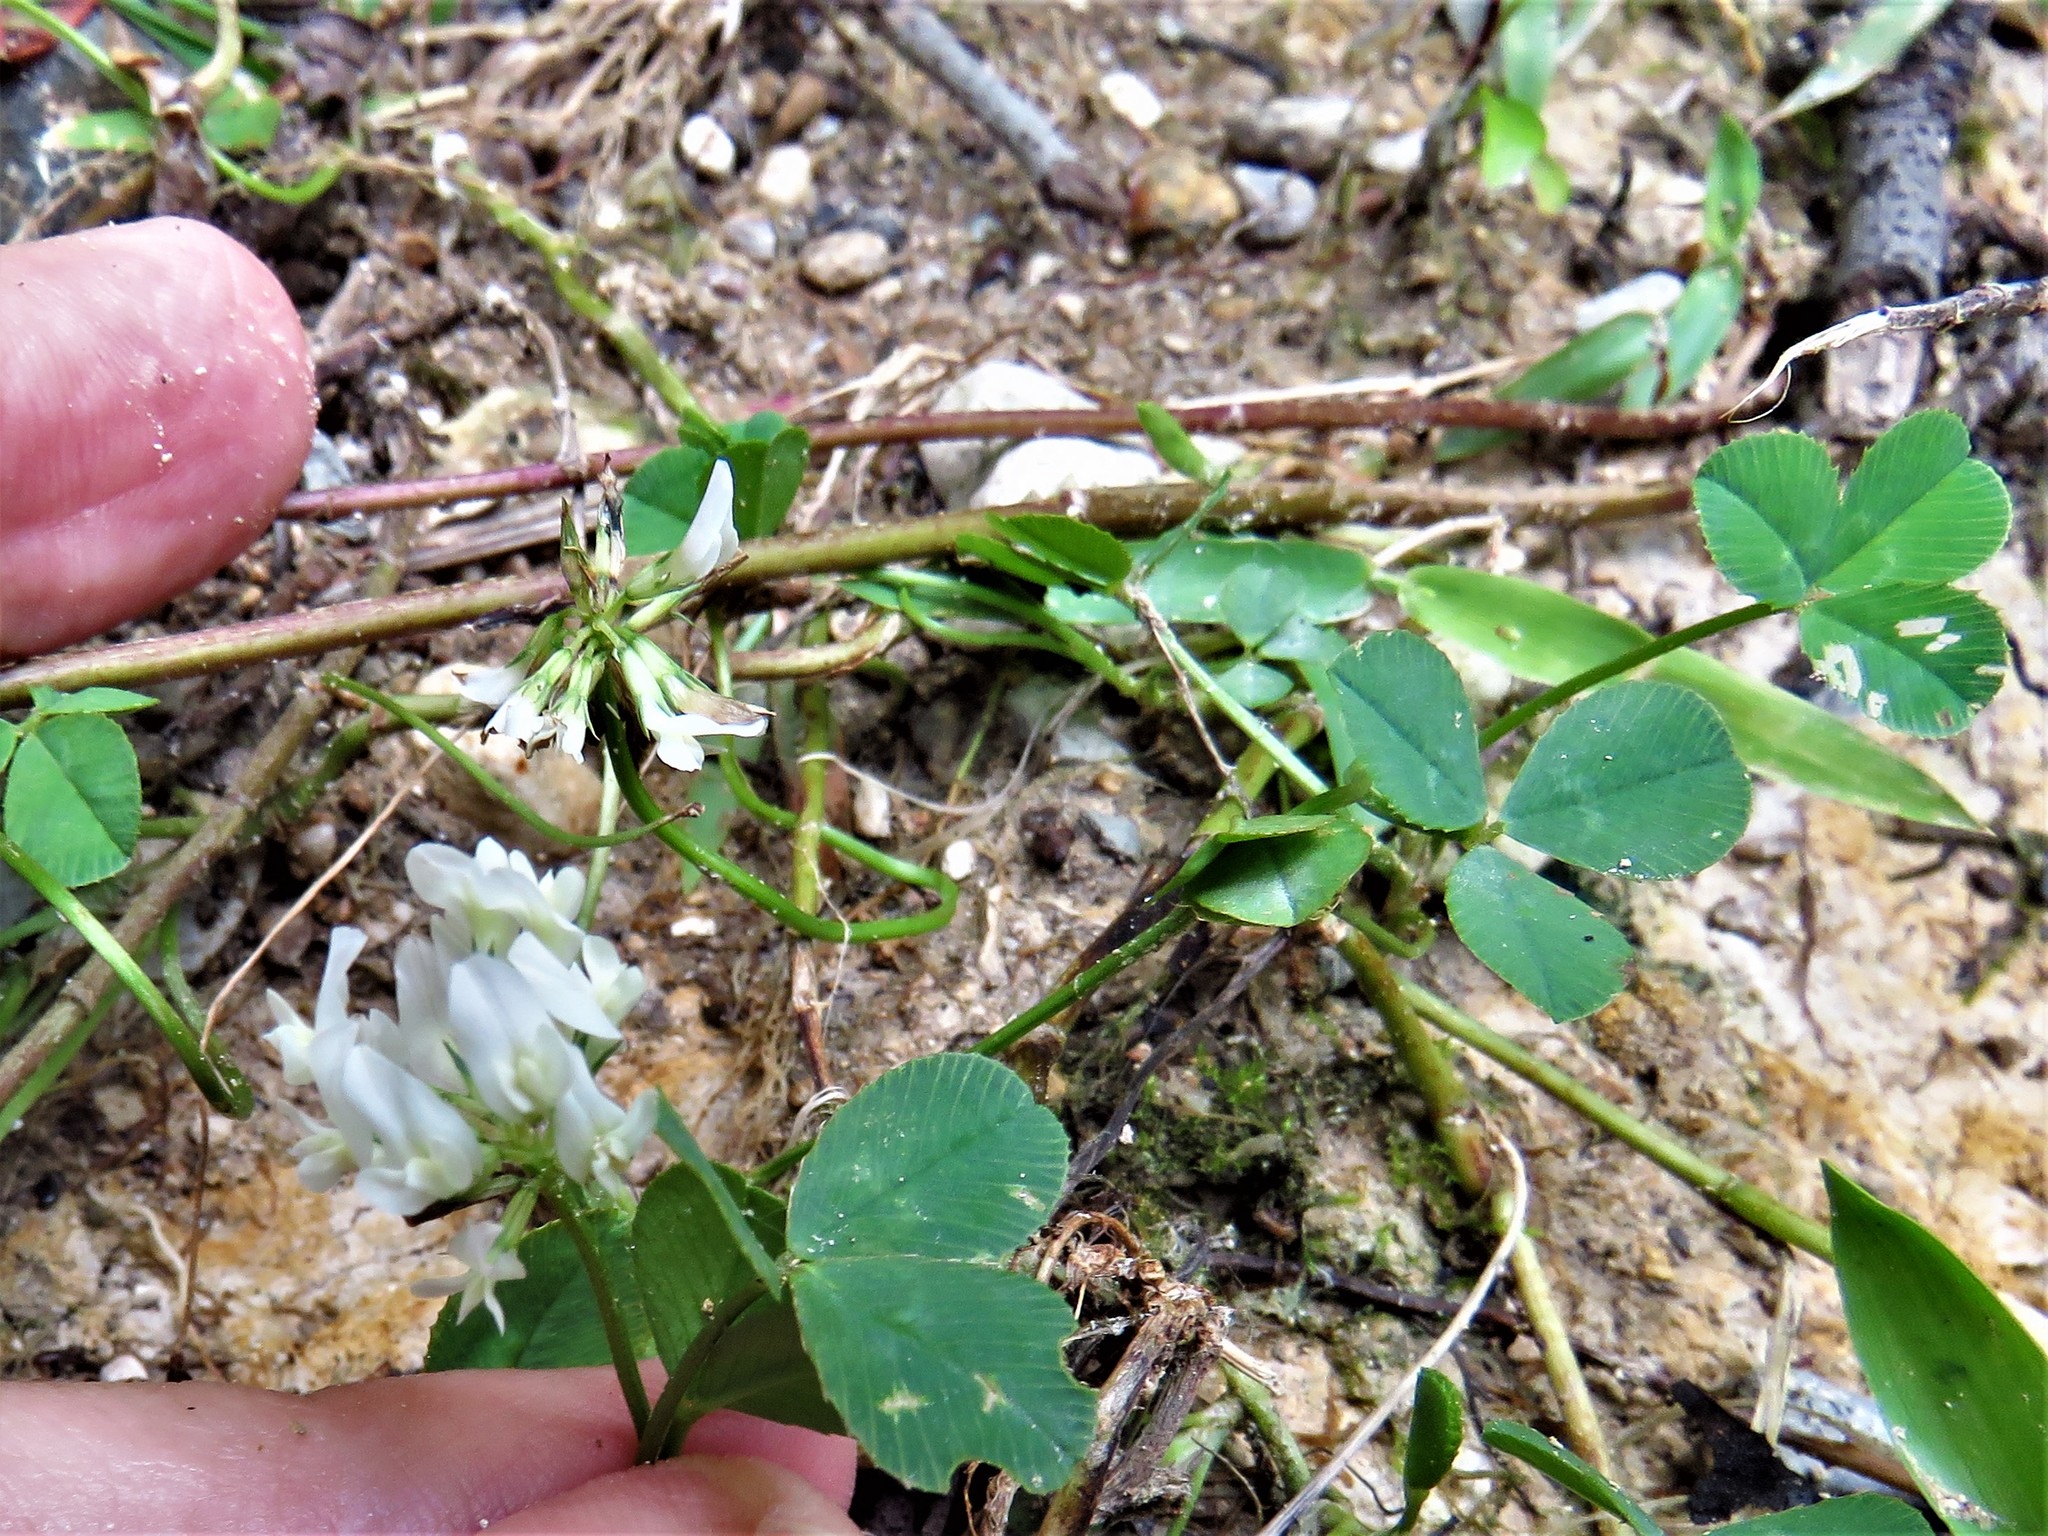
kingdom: Plantae
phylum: Tracheophyta
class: Magnoliopsida
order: Fabales
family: Fabaceae
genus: Trifolium
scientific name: Trifolium repens
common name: White clover
